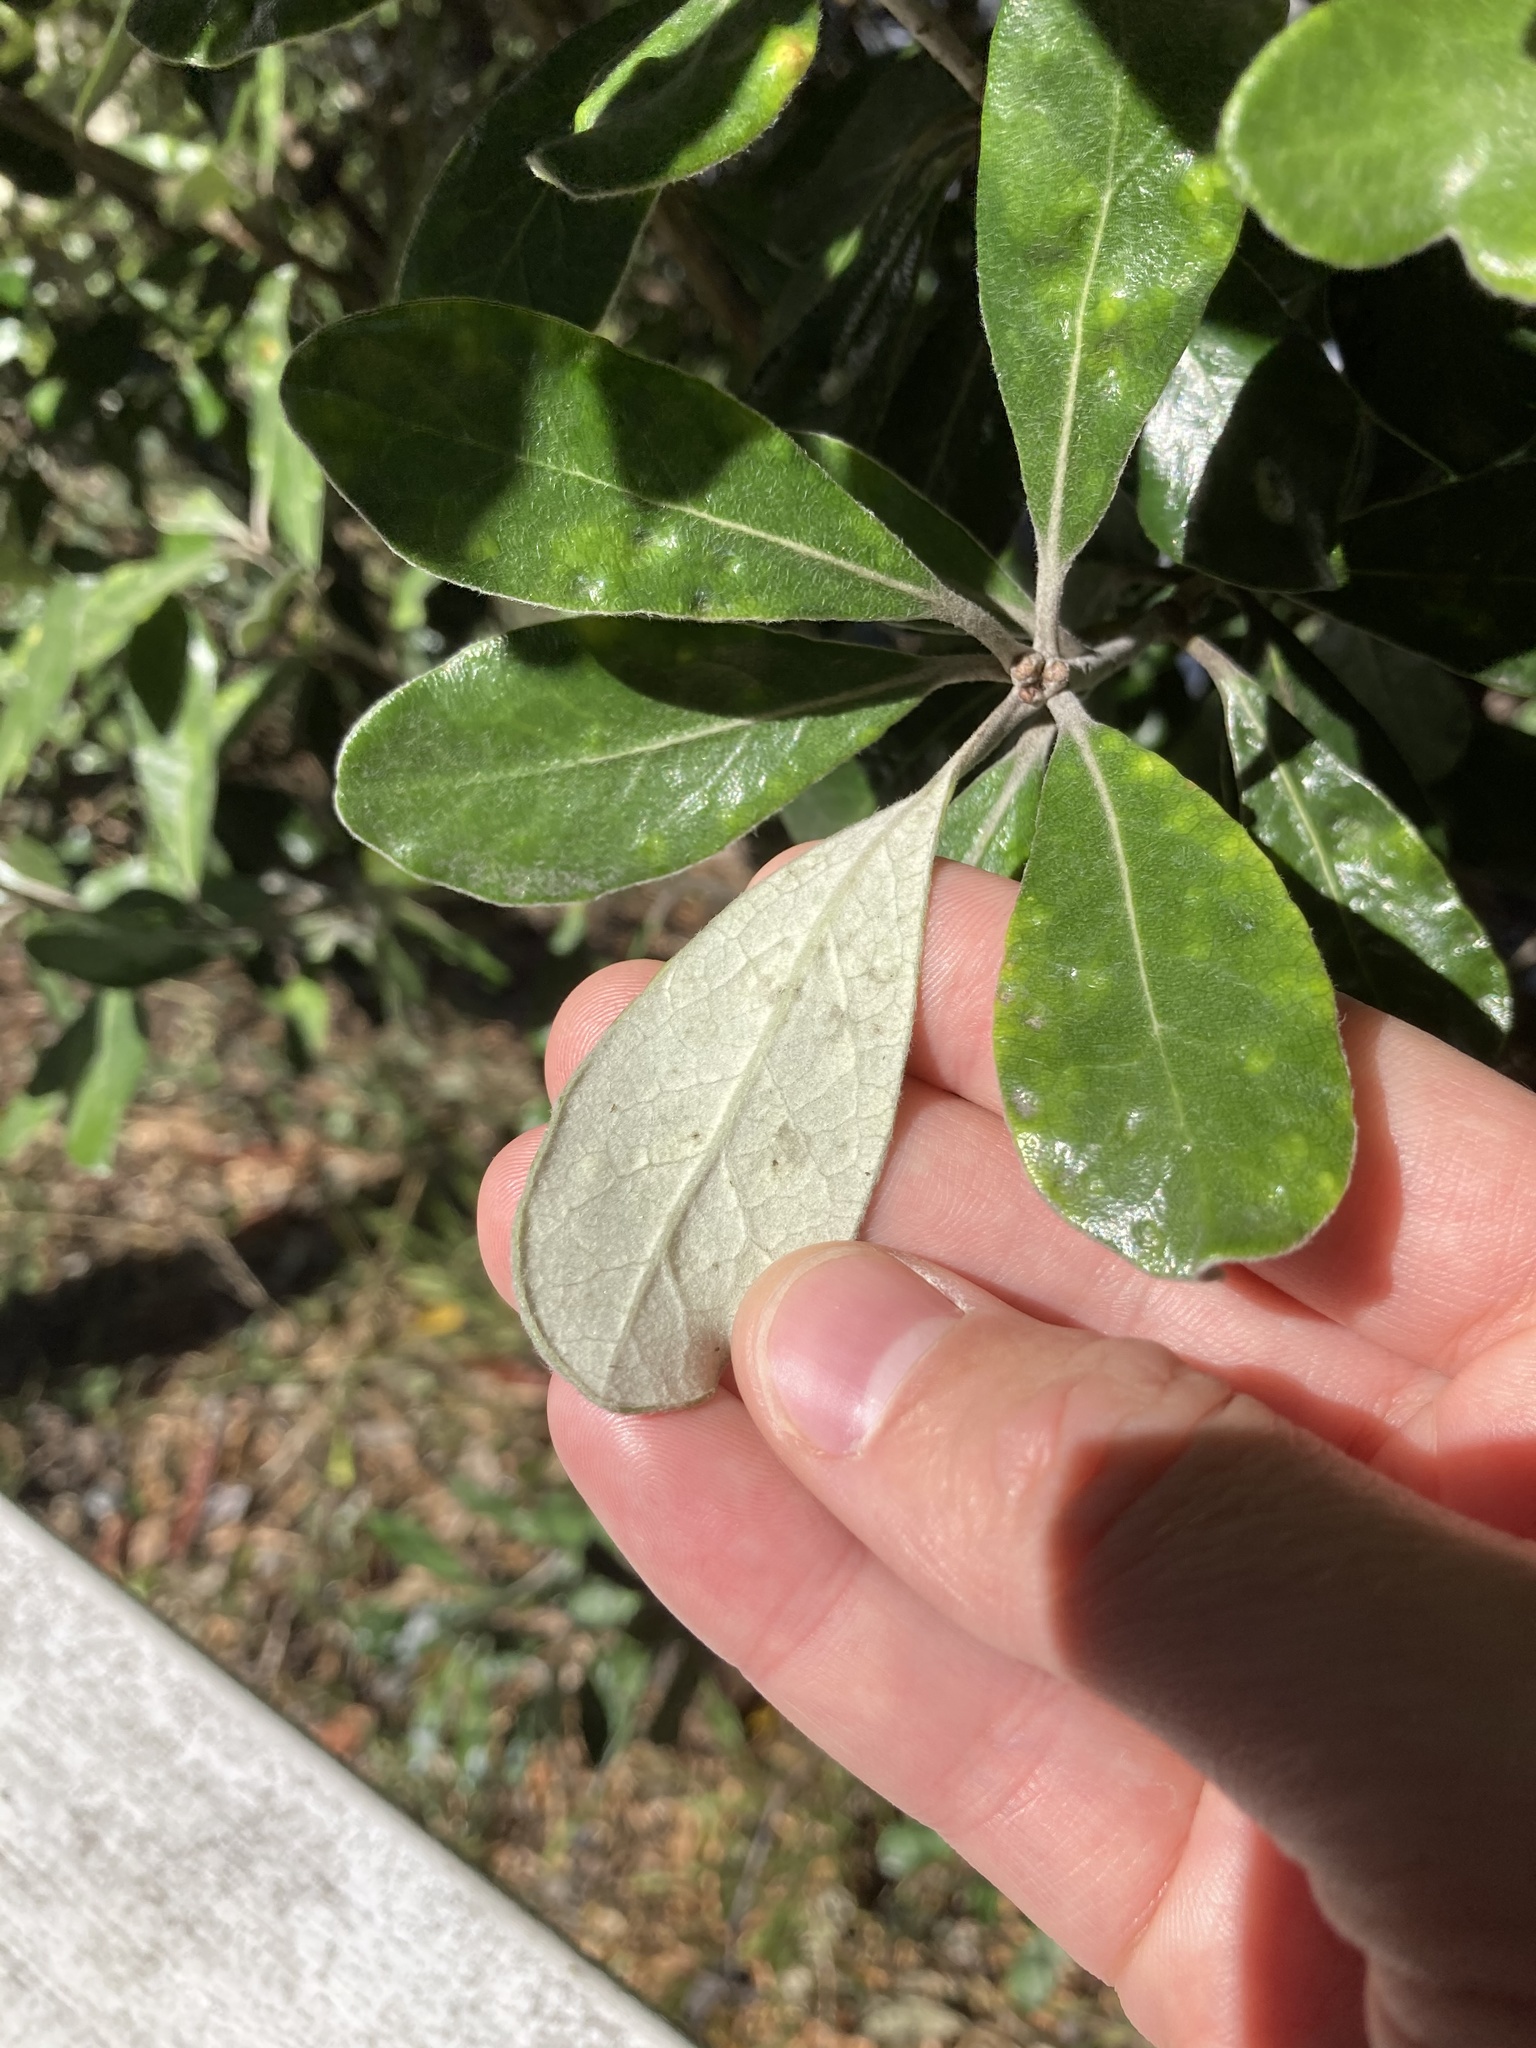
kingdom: Plantae
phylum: Tracheophyta
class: Magnoliopsida
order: Apiales
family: Pittosporaceae
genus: Pittosporum
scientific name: Pittosporum crassifolium
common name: Karo
